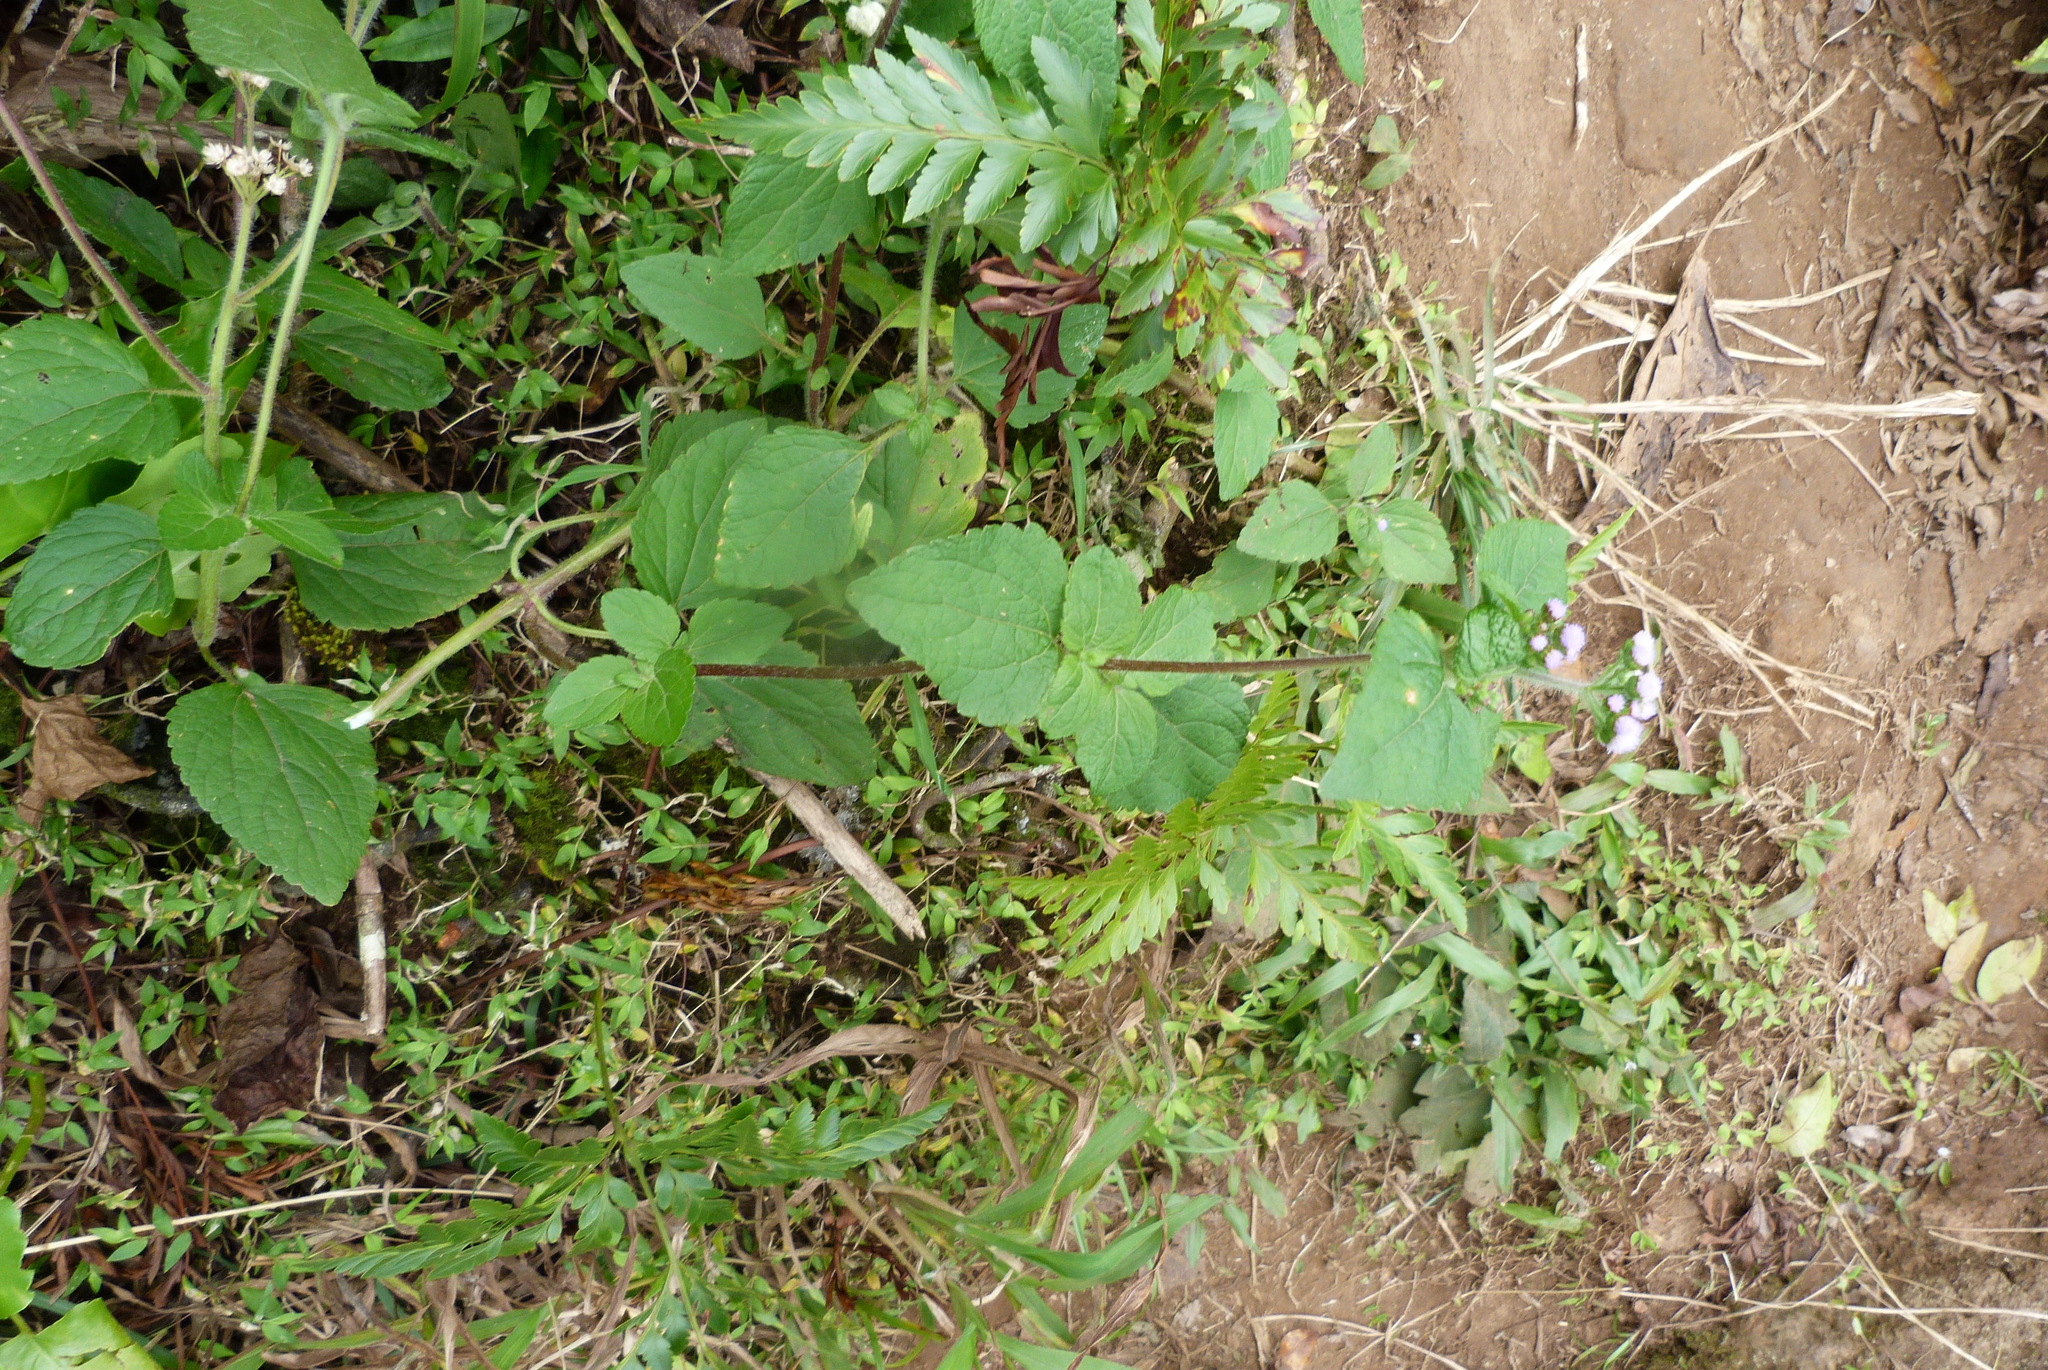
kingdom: Plantae
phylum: Tracheophyta
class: Magnoliopsida
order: Asterales
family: Asteraceae
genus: Ageratum
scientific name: Ageratum conyzoides
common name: Tropical whiteweed
